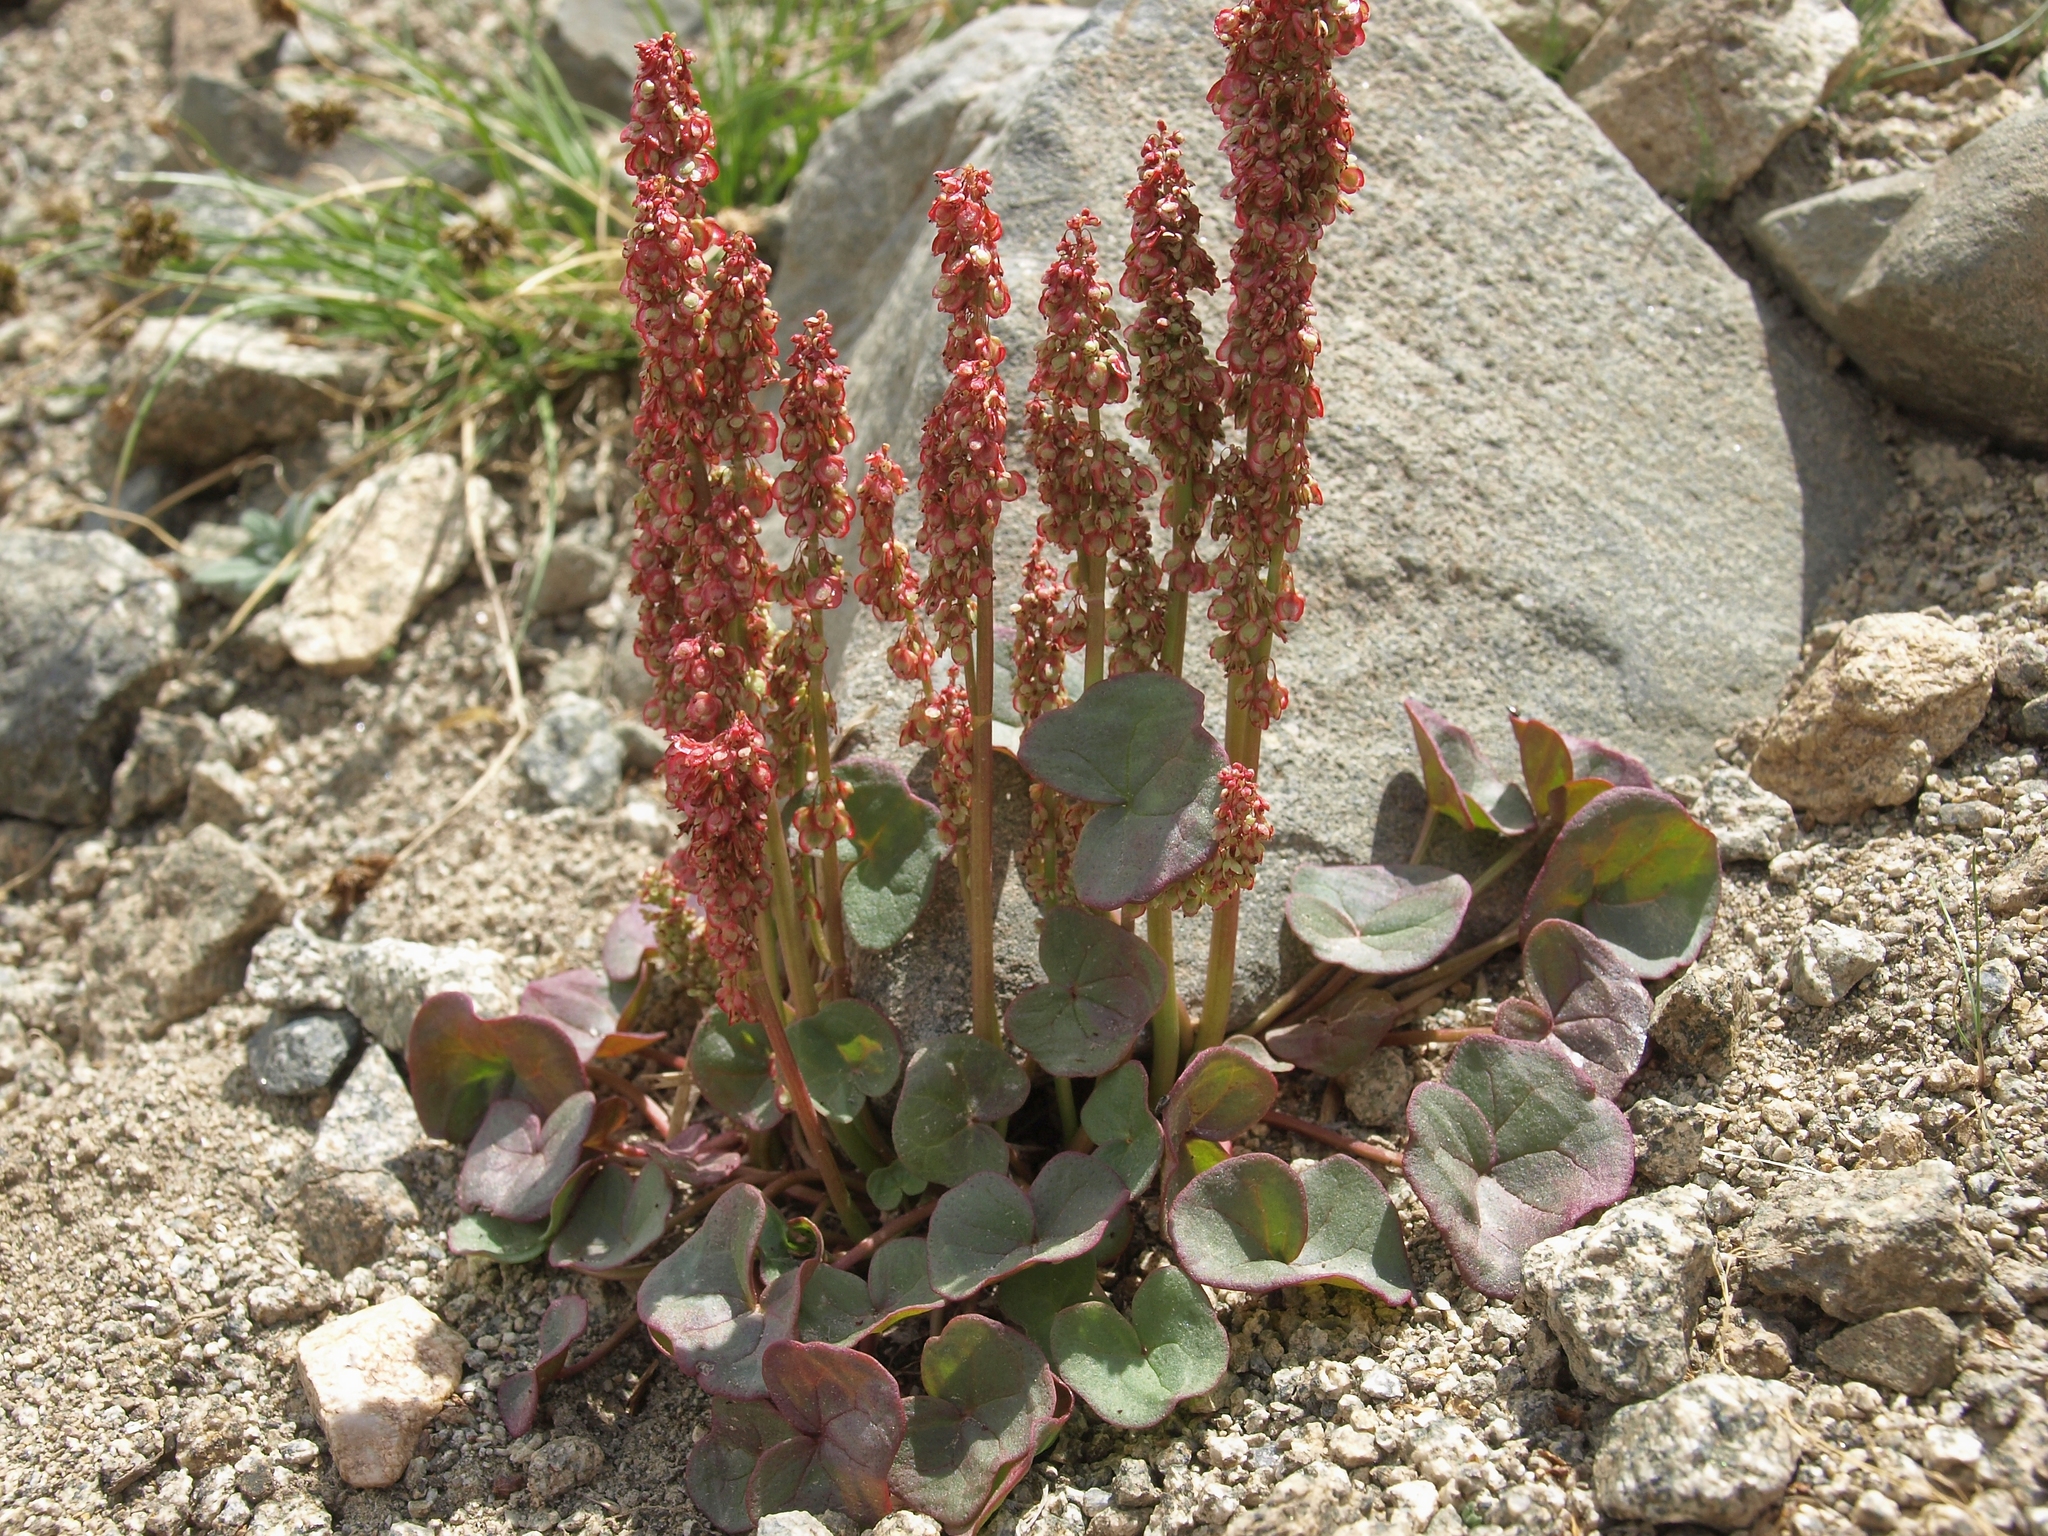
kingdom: Plantae
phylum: Tracheophyta
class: Magnoliopsida
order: Caryophyllales
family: Polygonaceae
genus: Oxyria
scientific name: Oxyria digyna
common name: Alpine mountain-sorrel
